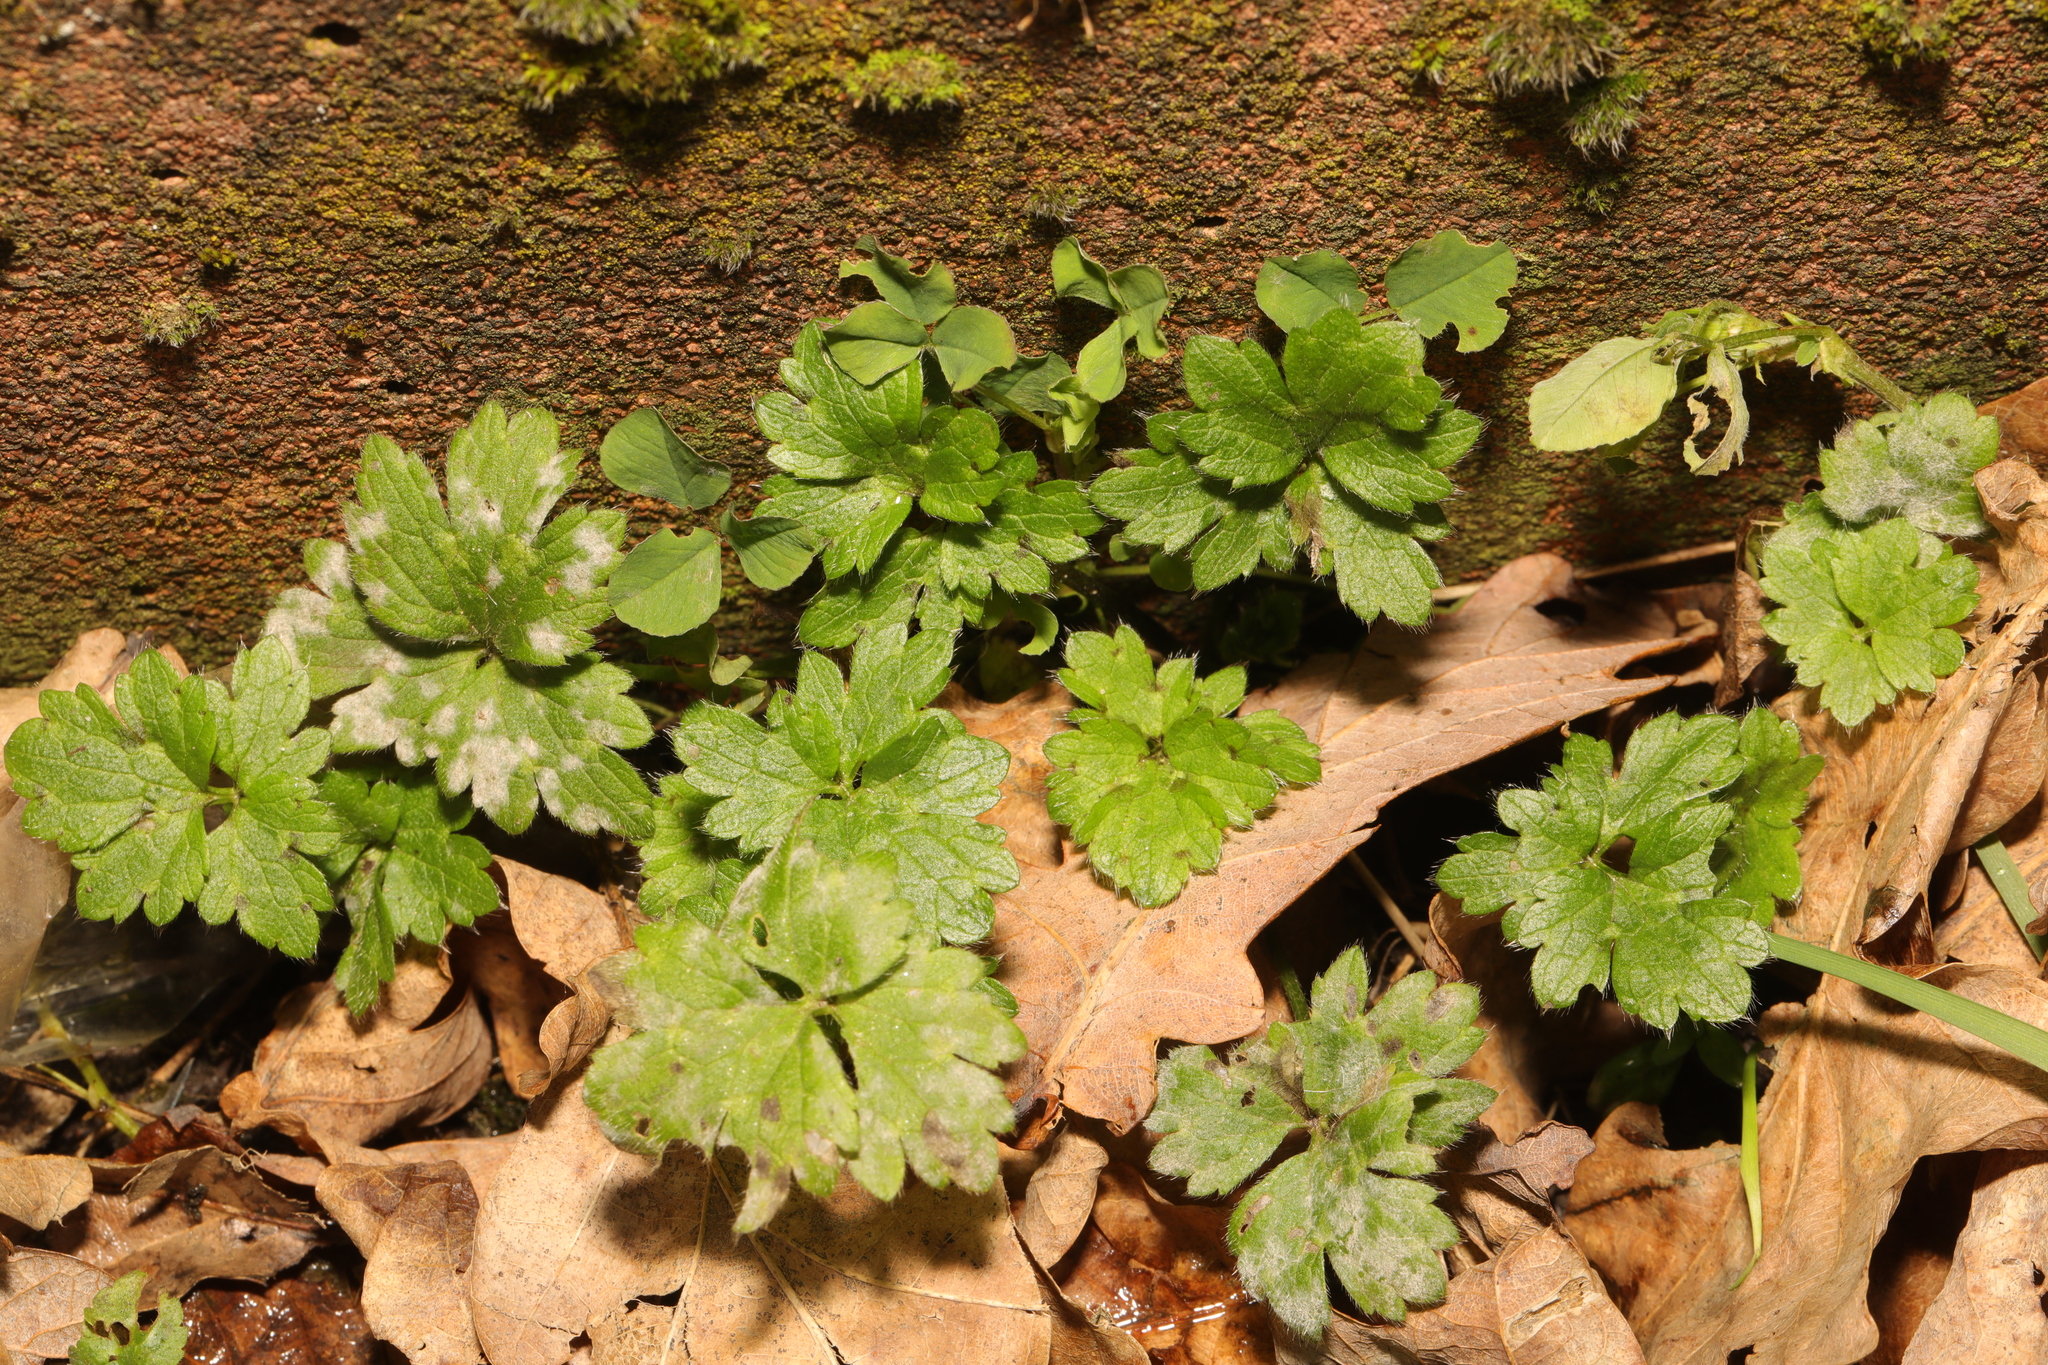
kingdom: Plantae
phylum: Tracheophyta
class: Magnoliopsida
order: Ranunculales
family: Ranunculaceae
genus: Ranunculus
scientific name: Ranunculus repens
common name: Creeping buttercup
